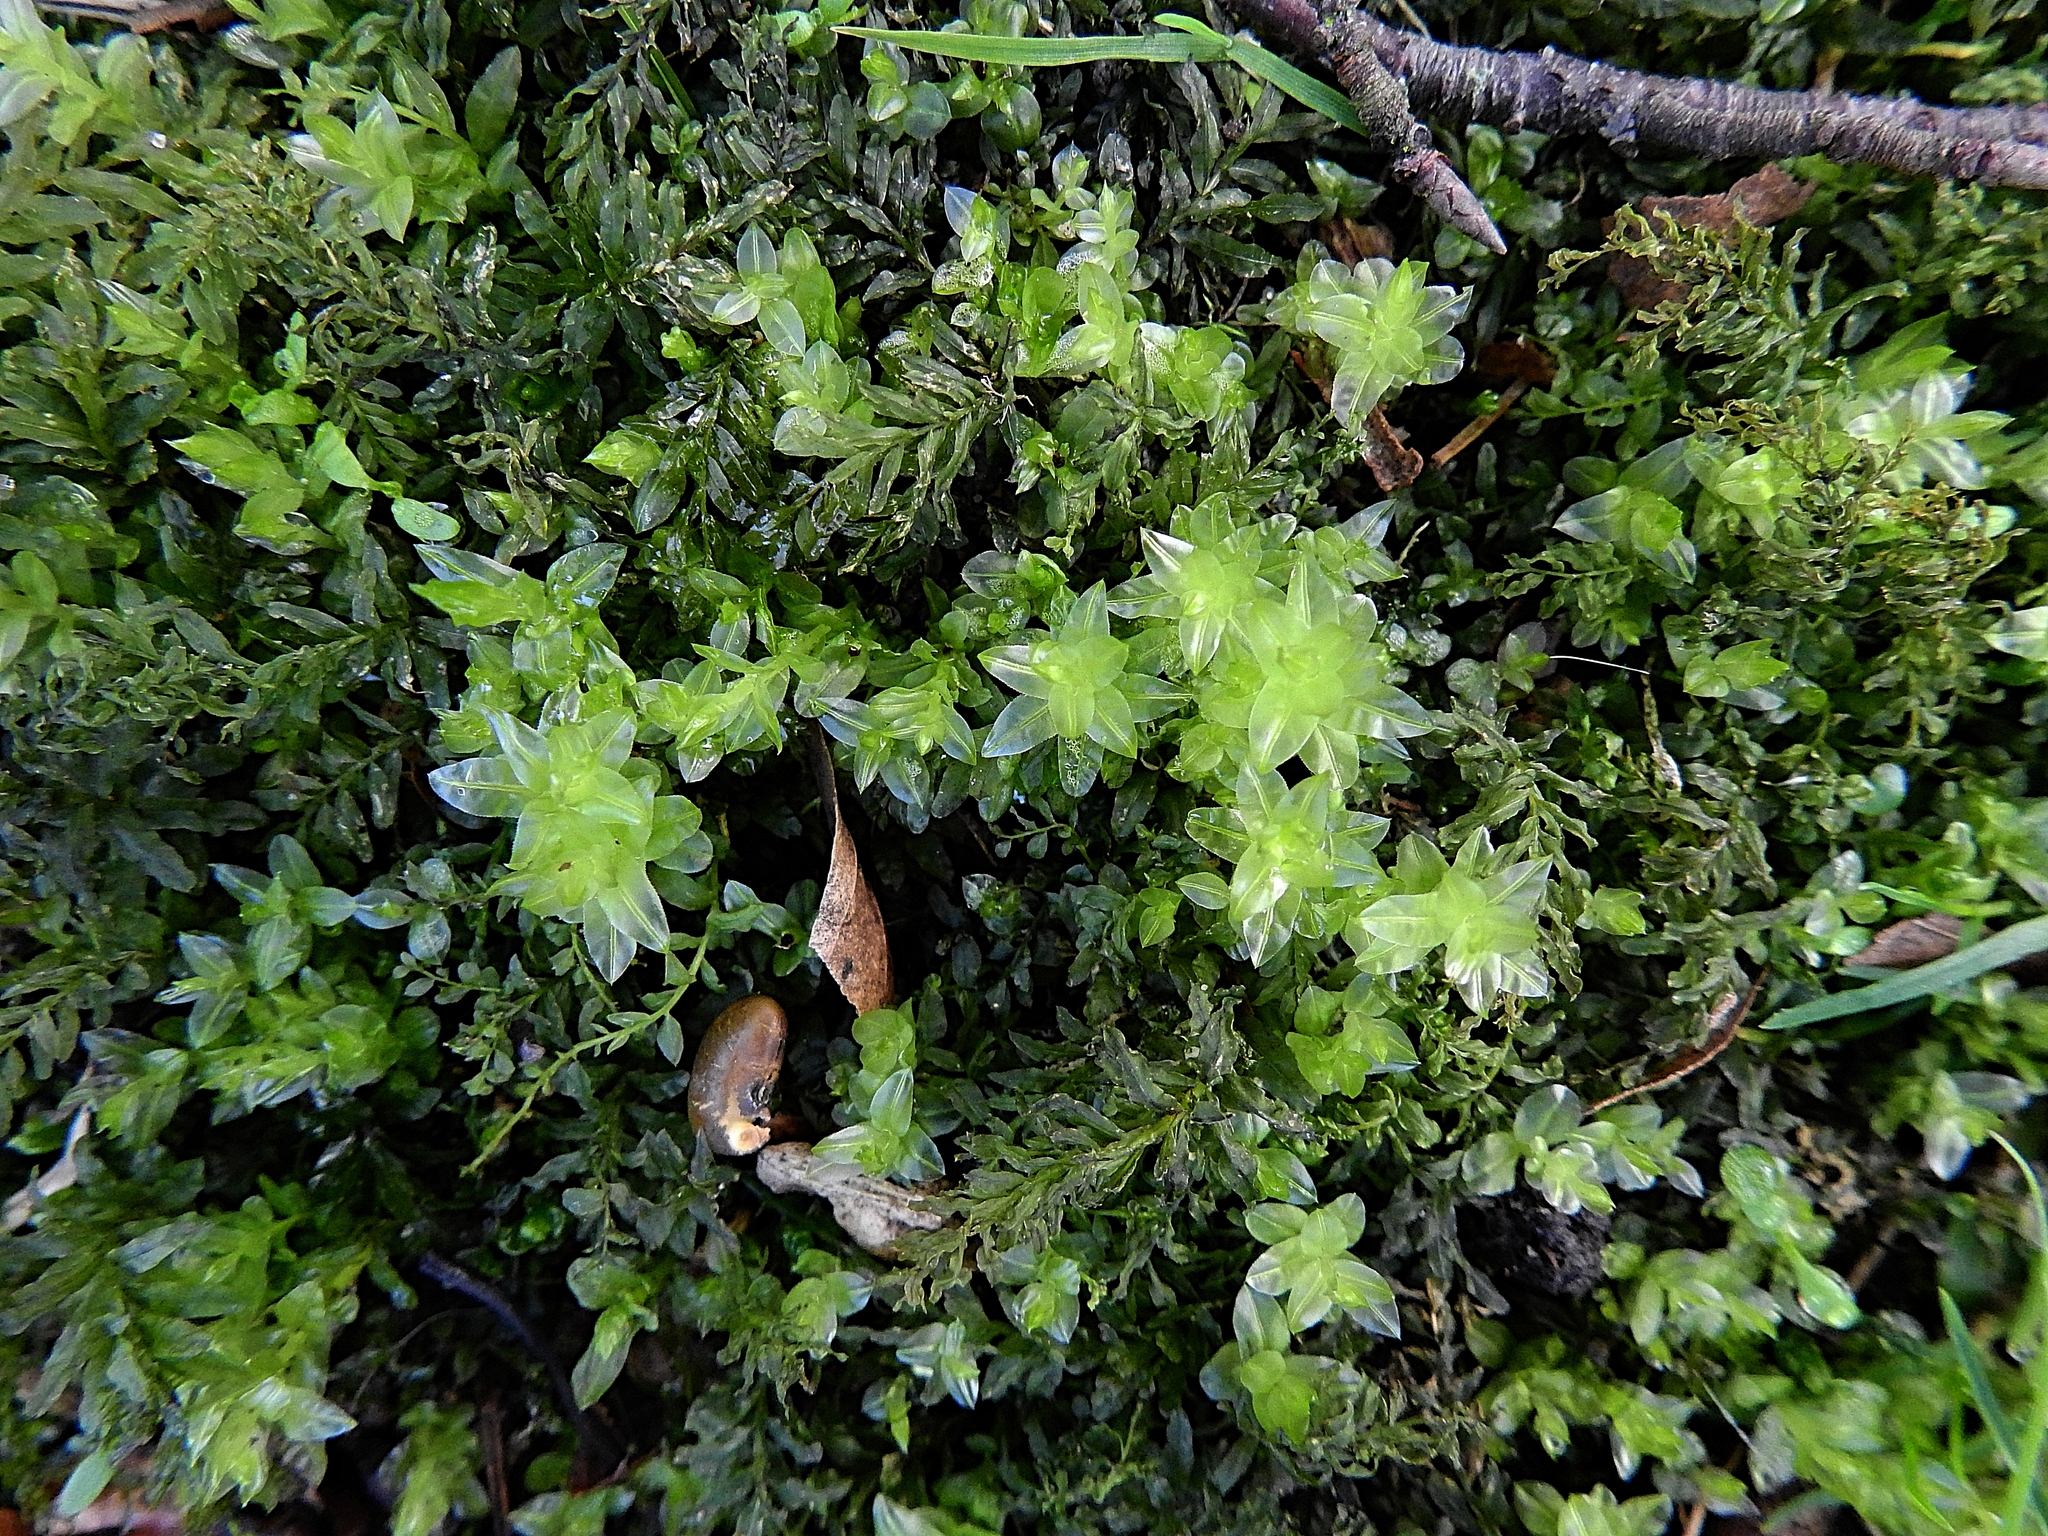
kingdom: Plantae
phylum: Bryophyta
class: Bryopsida
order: Bryales
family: Mniaceae
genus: Plagiomnium
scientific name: Plagiomnium undulatum
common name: Hart's-tongue thyme-moss
